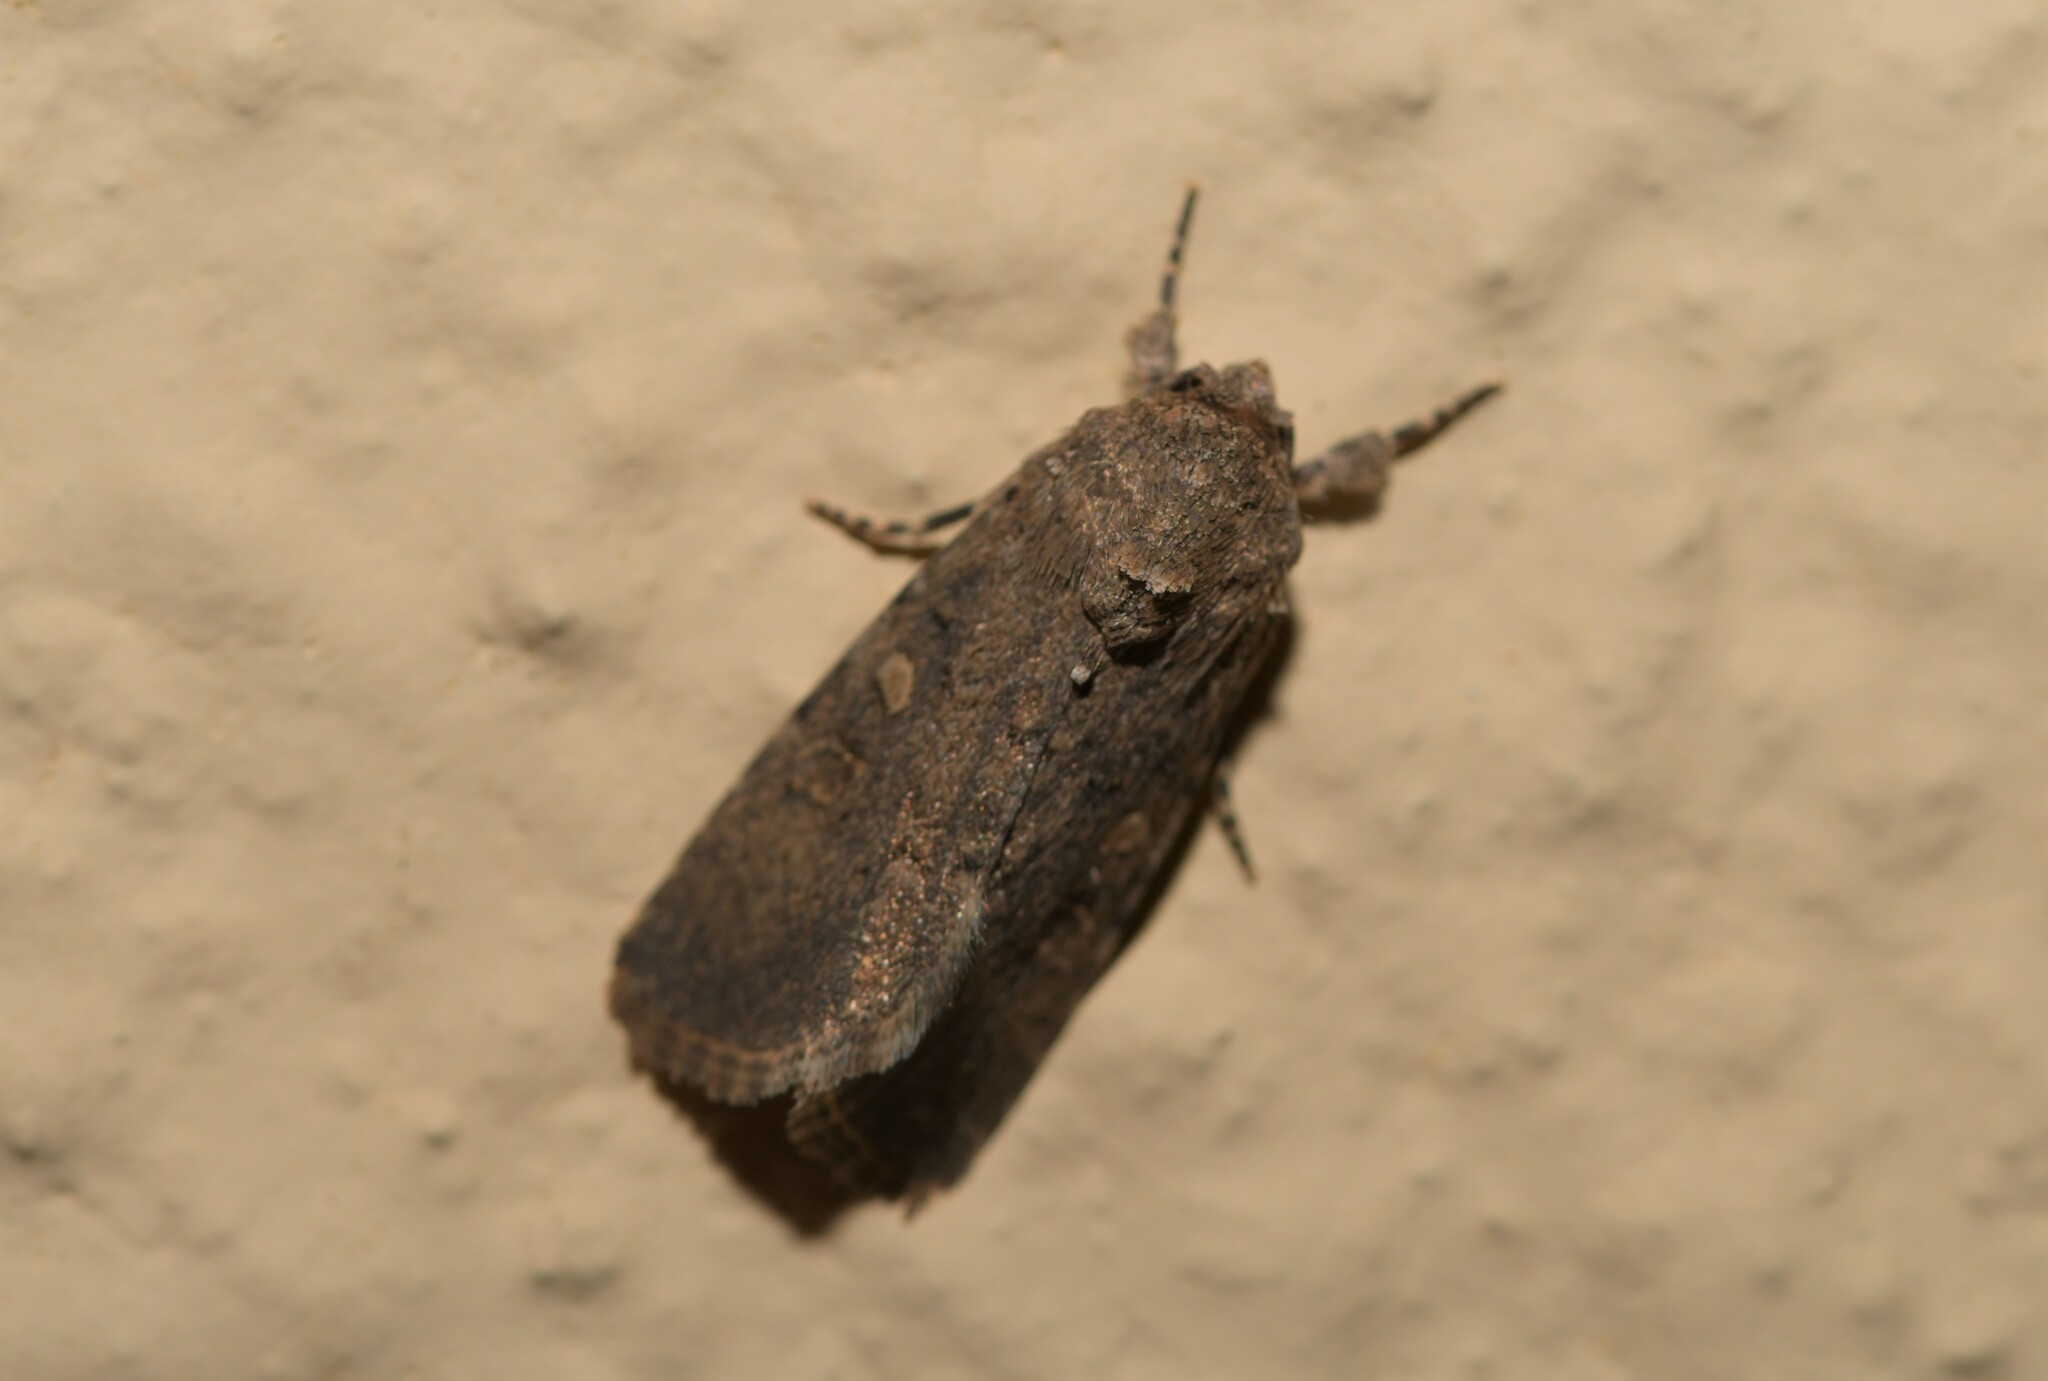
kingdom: Animalia
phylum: Arthropoda
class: Insecta
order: Lepidoptera
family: Noctuidae
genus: Spodoptera
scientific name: Spodoptera cilium
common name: Dark mottled willow
